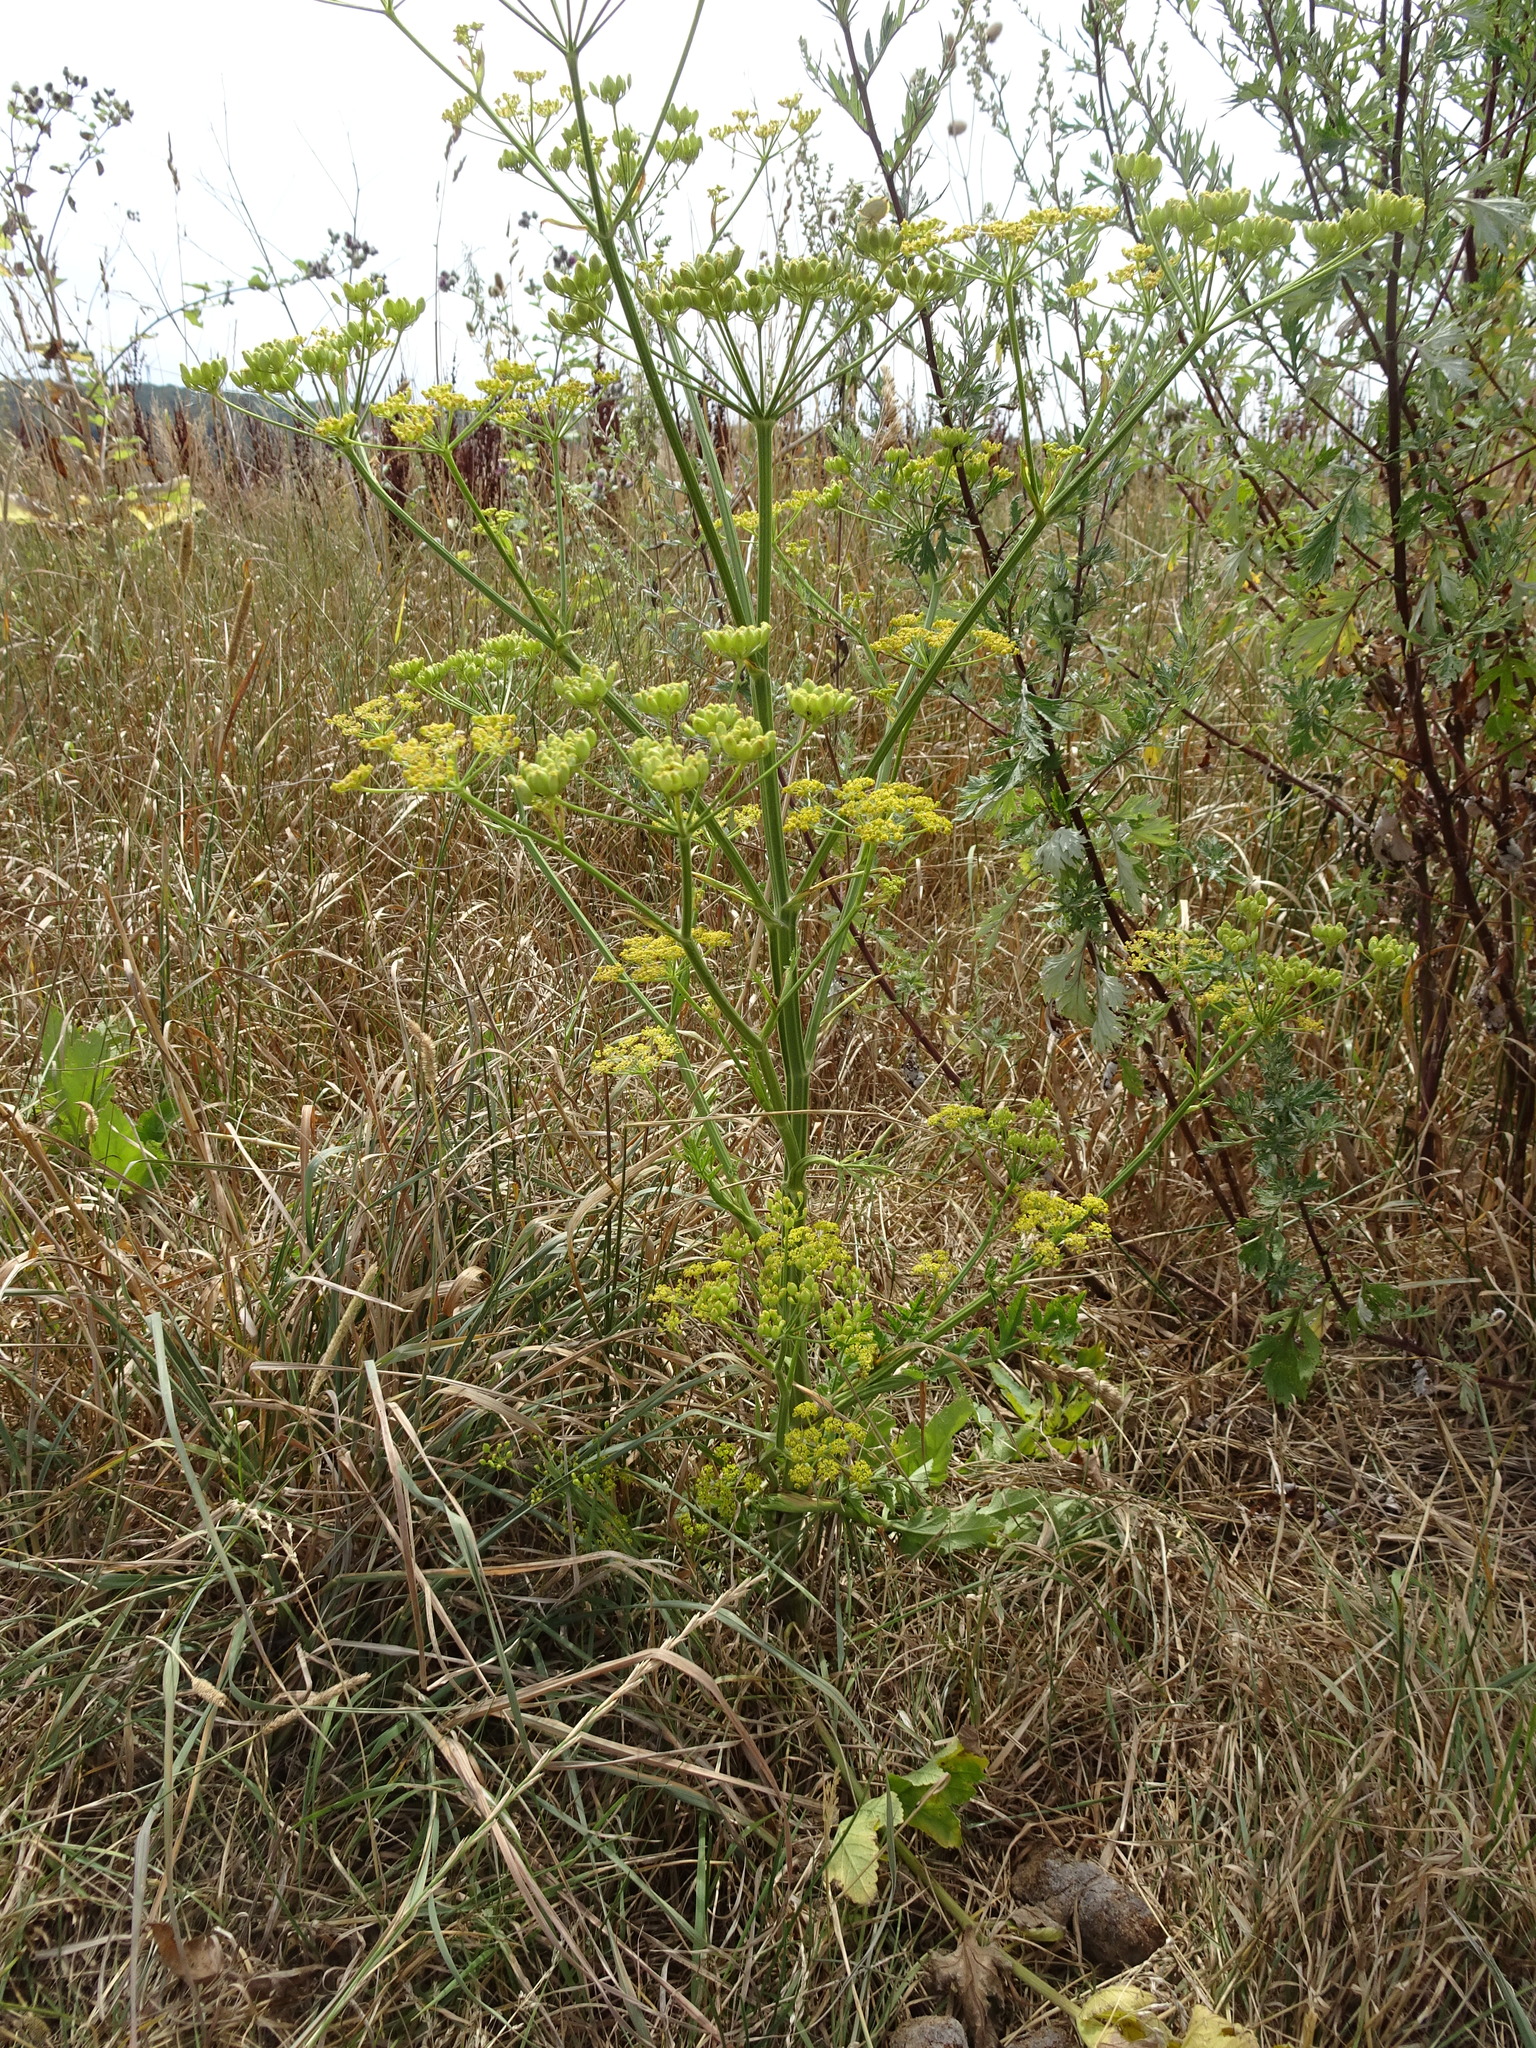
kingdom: Plantae
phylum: Tracheophyta
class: Magnoliopsida
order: Apiales
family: Apiaceae
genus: Pastinaca
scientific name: Pastinaca sativa
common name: Wild parsnip
